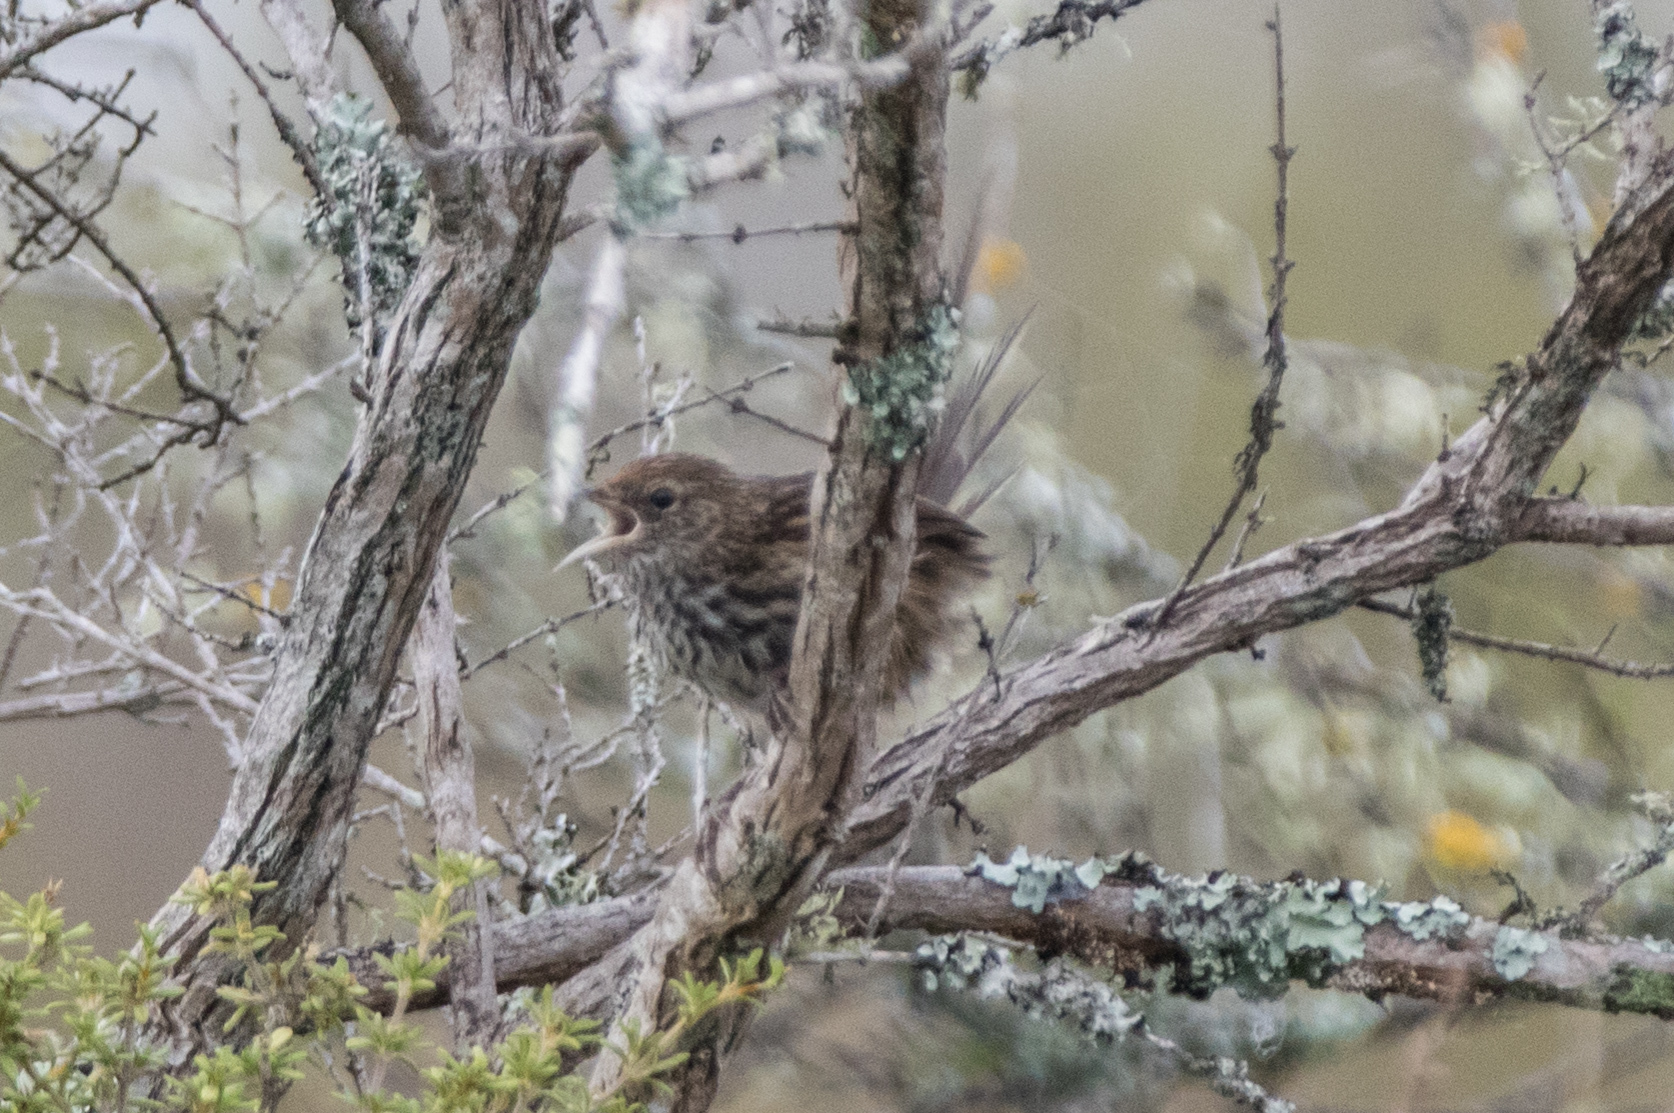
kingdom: Animalia
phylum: Chordata
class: Aves
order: Passeriformes
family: Locustellidae
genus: Megalurus
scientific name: Megalurus punctatus
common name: New zealand fernbird
